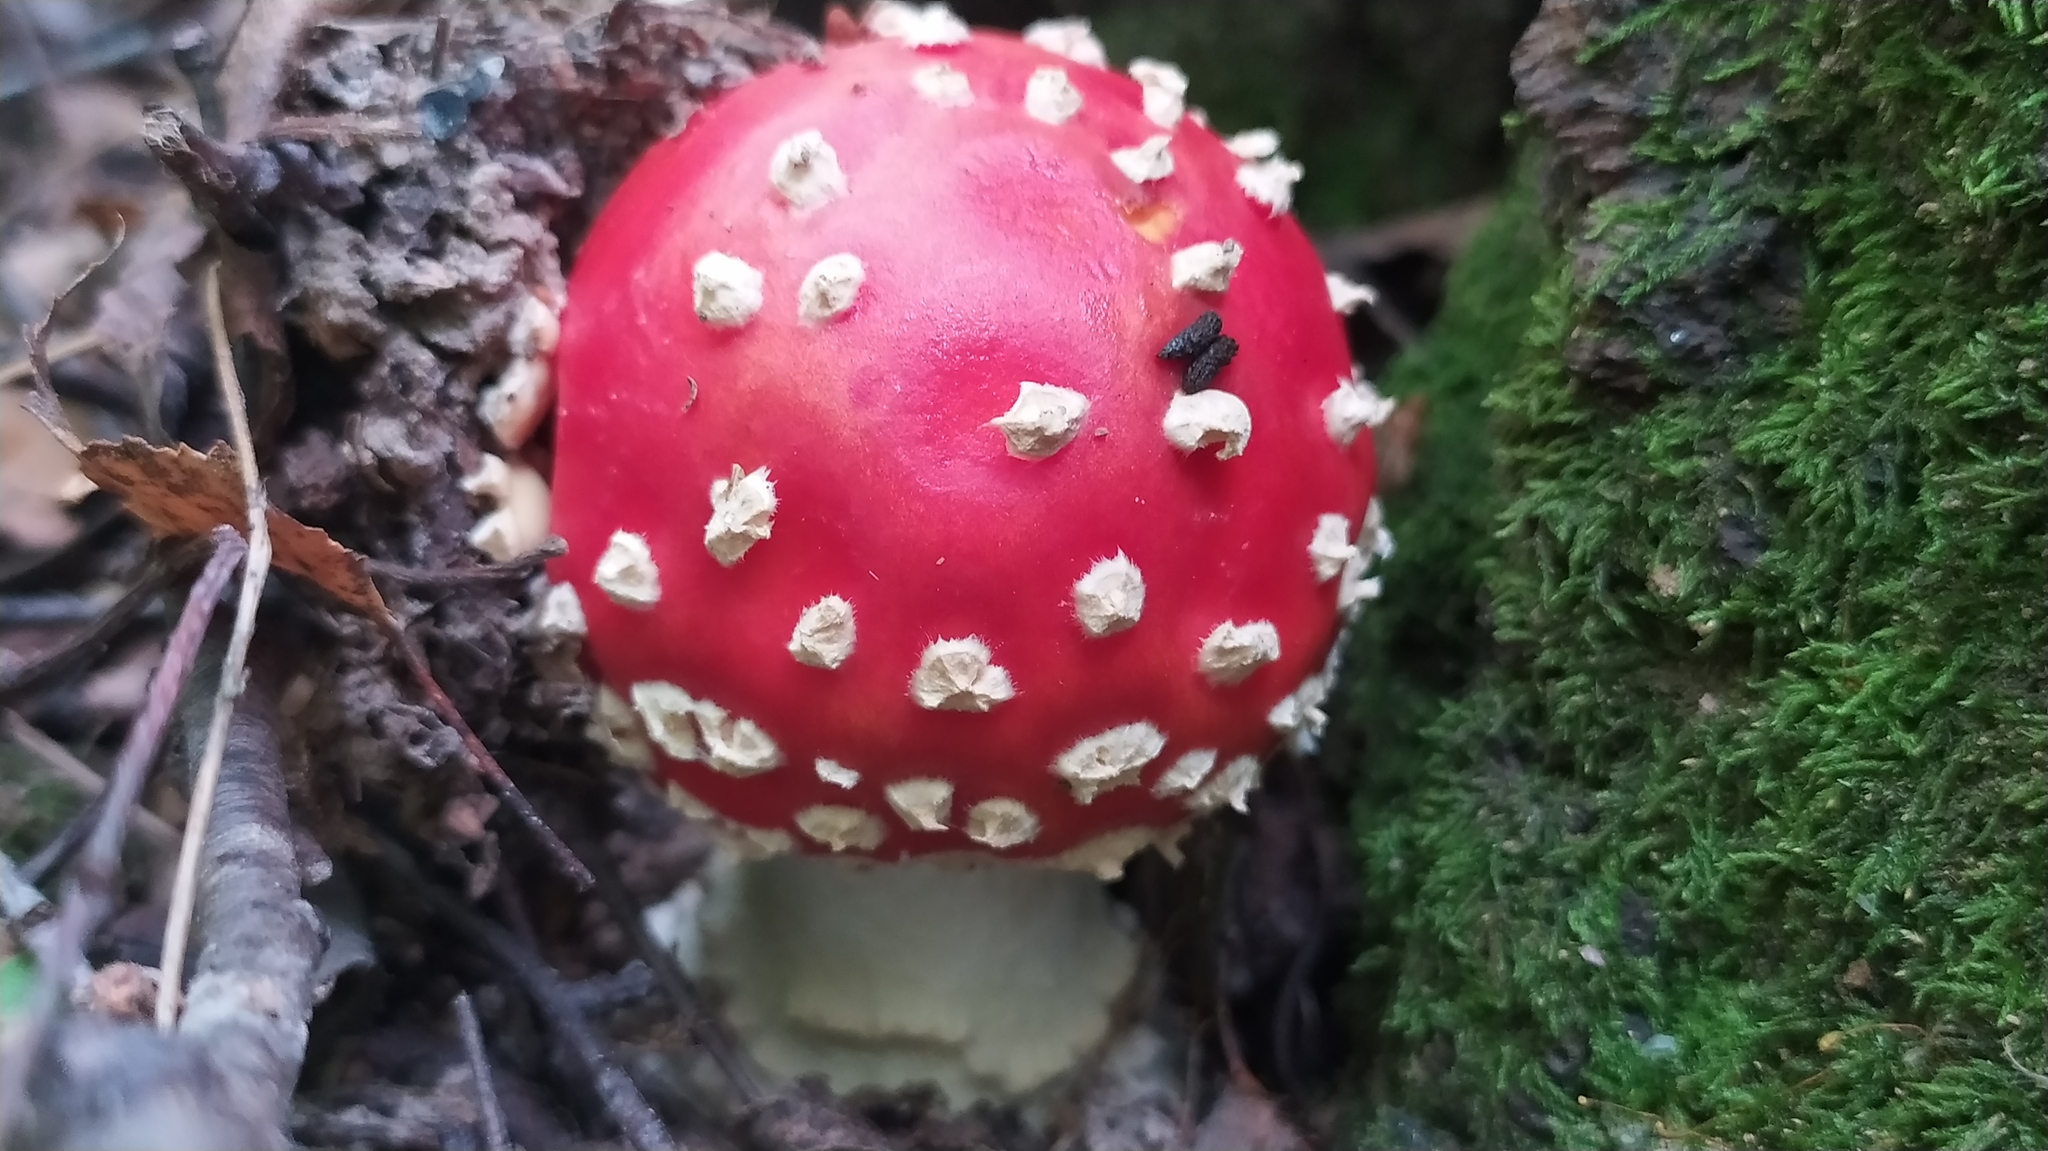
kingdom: Fungi
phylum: Basidiomycota
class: Agaricomycetes
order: Agaricales
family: Amanitaceae
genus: Amanita
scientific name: Amanita muscaria
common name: Fly agaric
